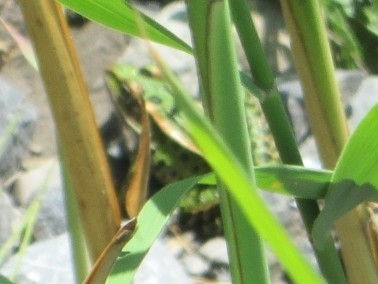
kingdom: Animalia
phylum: Chordata
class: Amphibia
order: Anura
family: Ranidae
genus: Lithobates
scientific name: Lithobates pipiens
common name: Northern leopard frog
